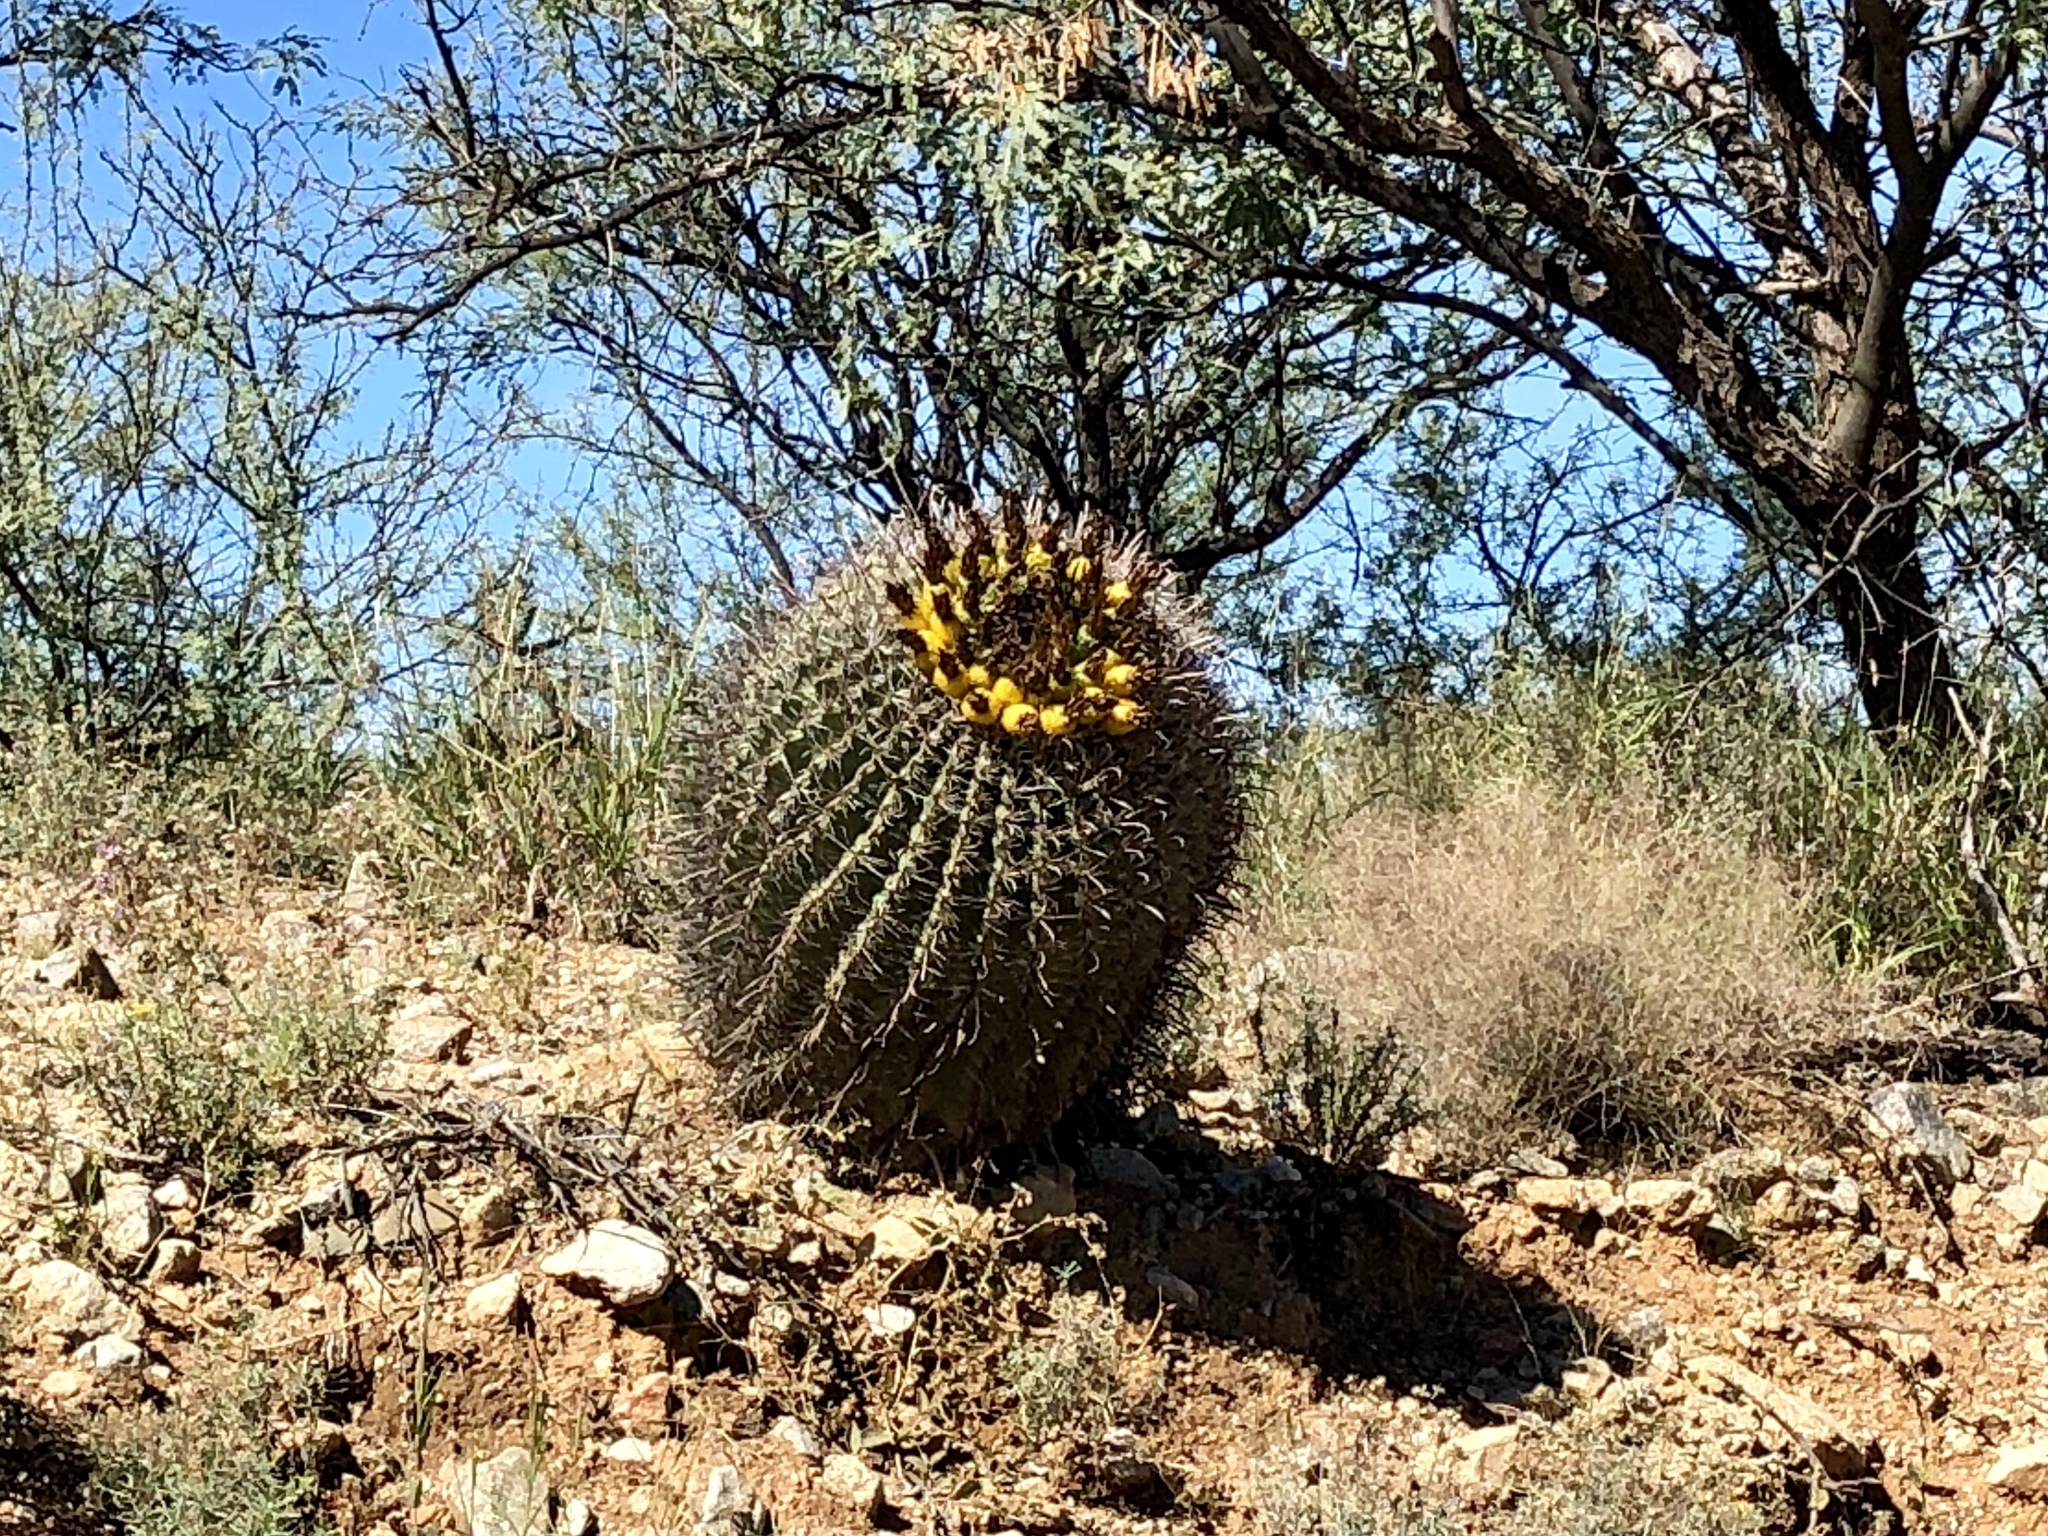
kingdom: Plantae
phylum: Tracheophyta
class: Magnoliopsida
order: Caryophyllales
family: Cactaceae
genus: Ferocactus
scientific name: Ferocactus wislizeni
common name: Candy barrel cactus
